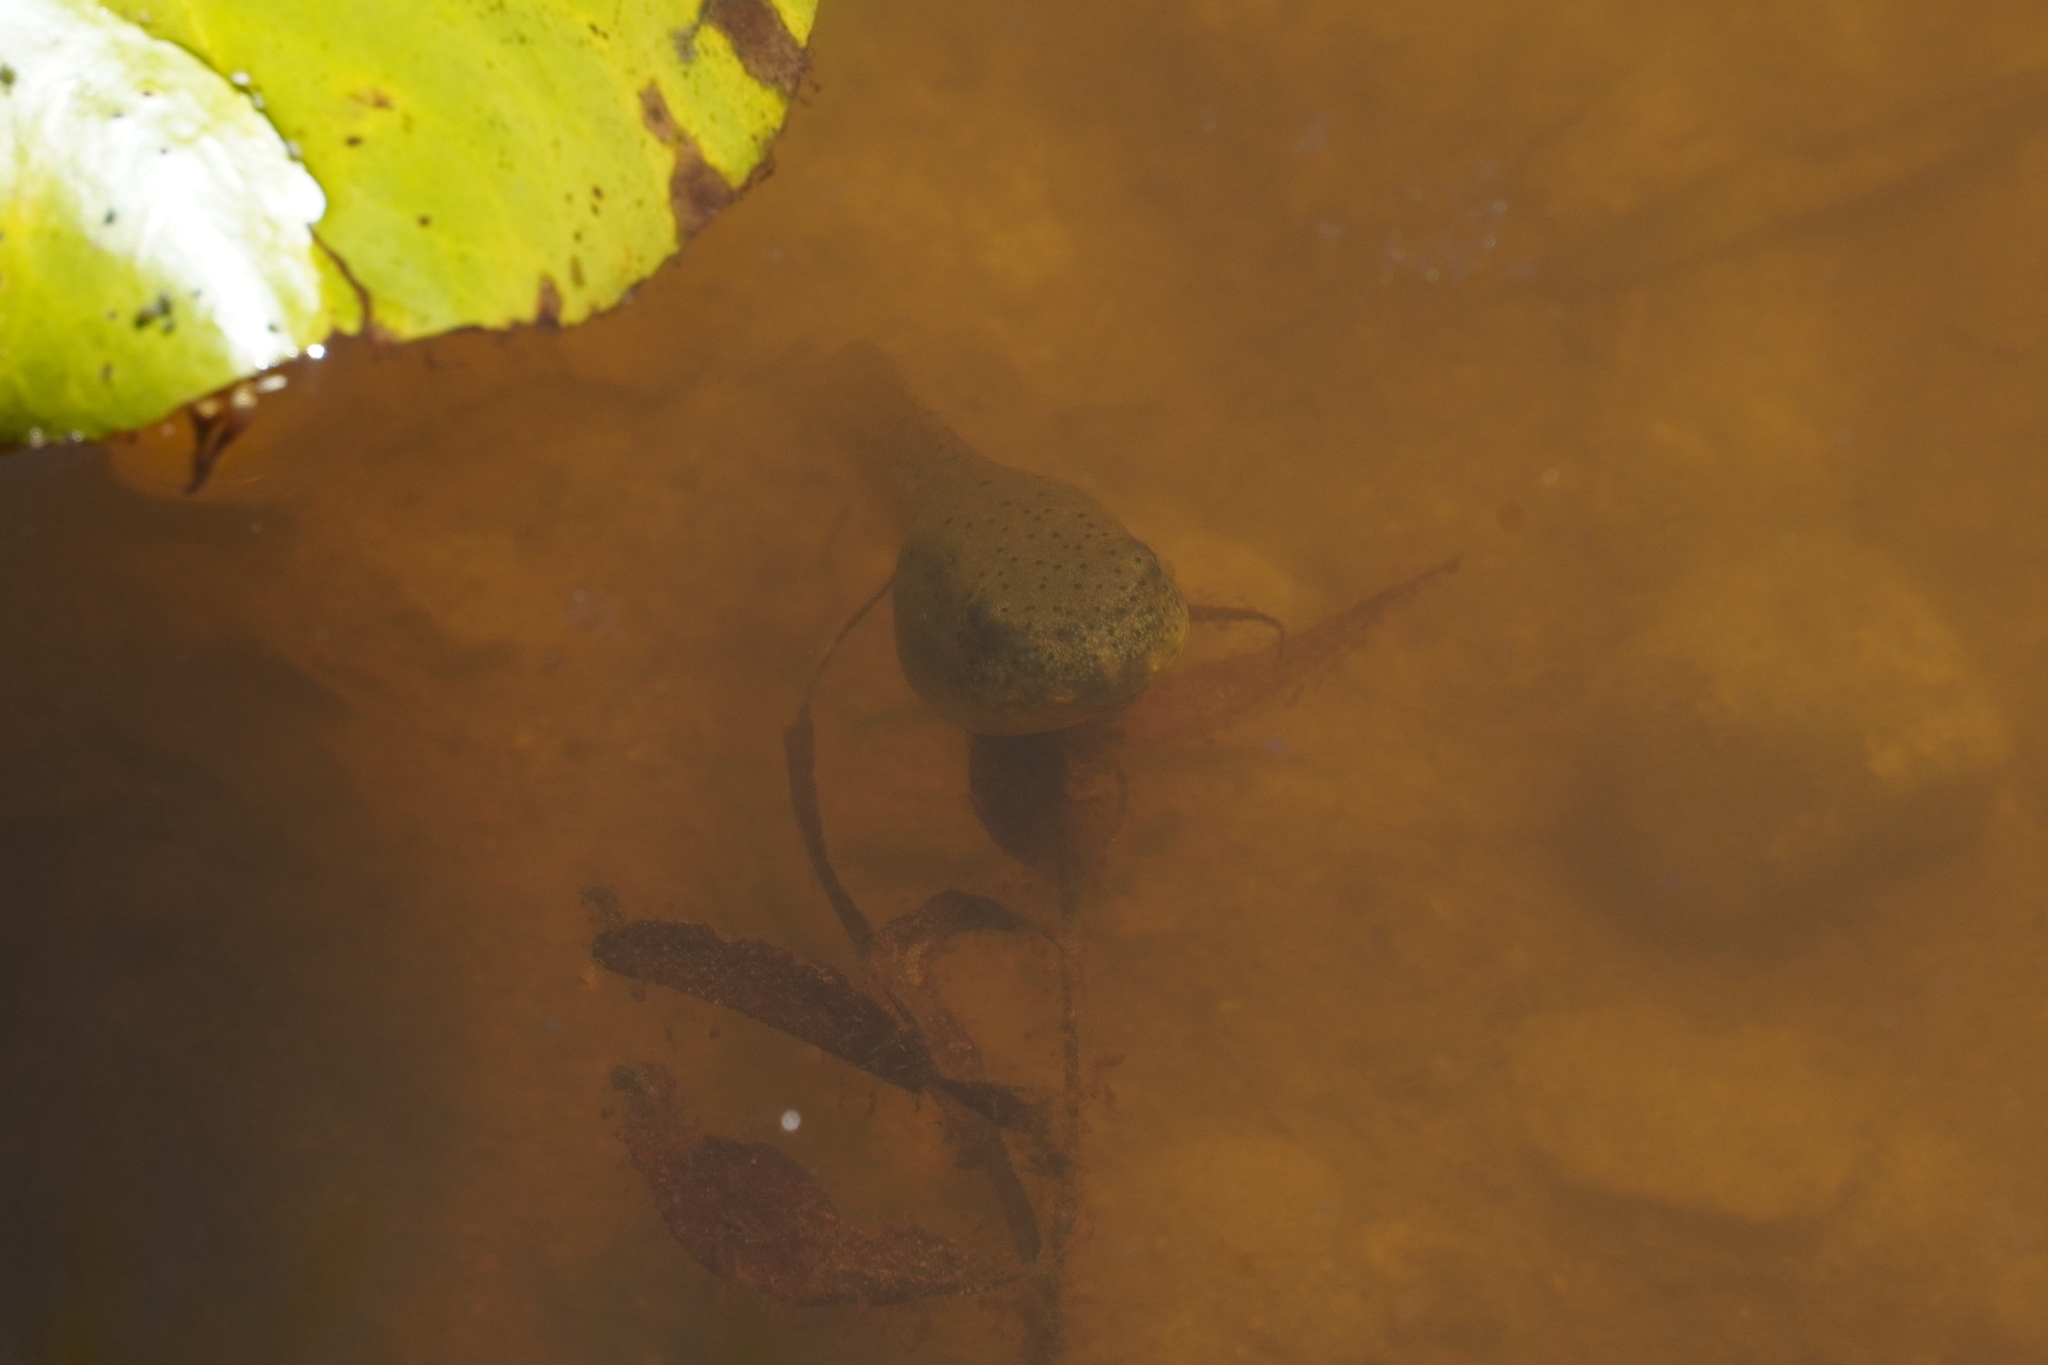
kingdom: Animalia
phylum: Chordata
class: Amphibia
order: Anura
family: Ranidae
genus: Lithobates
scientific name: Lithobates catesbeianus
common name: American bullfrog
